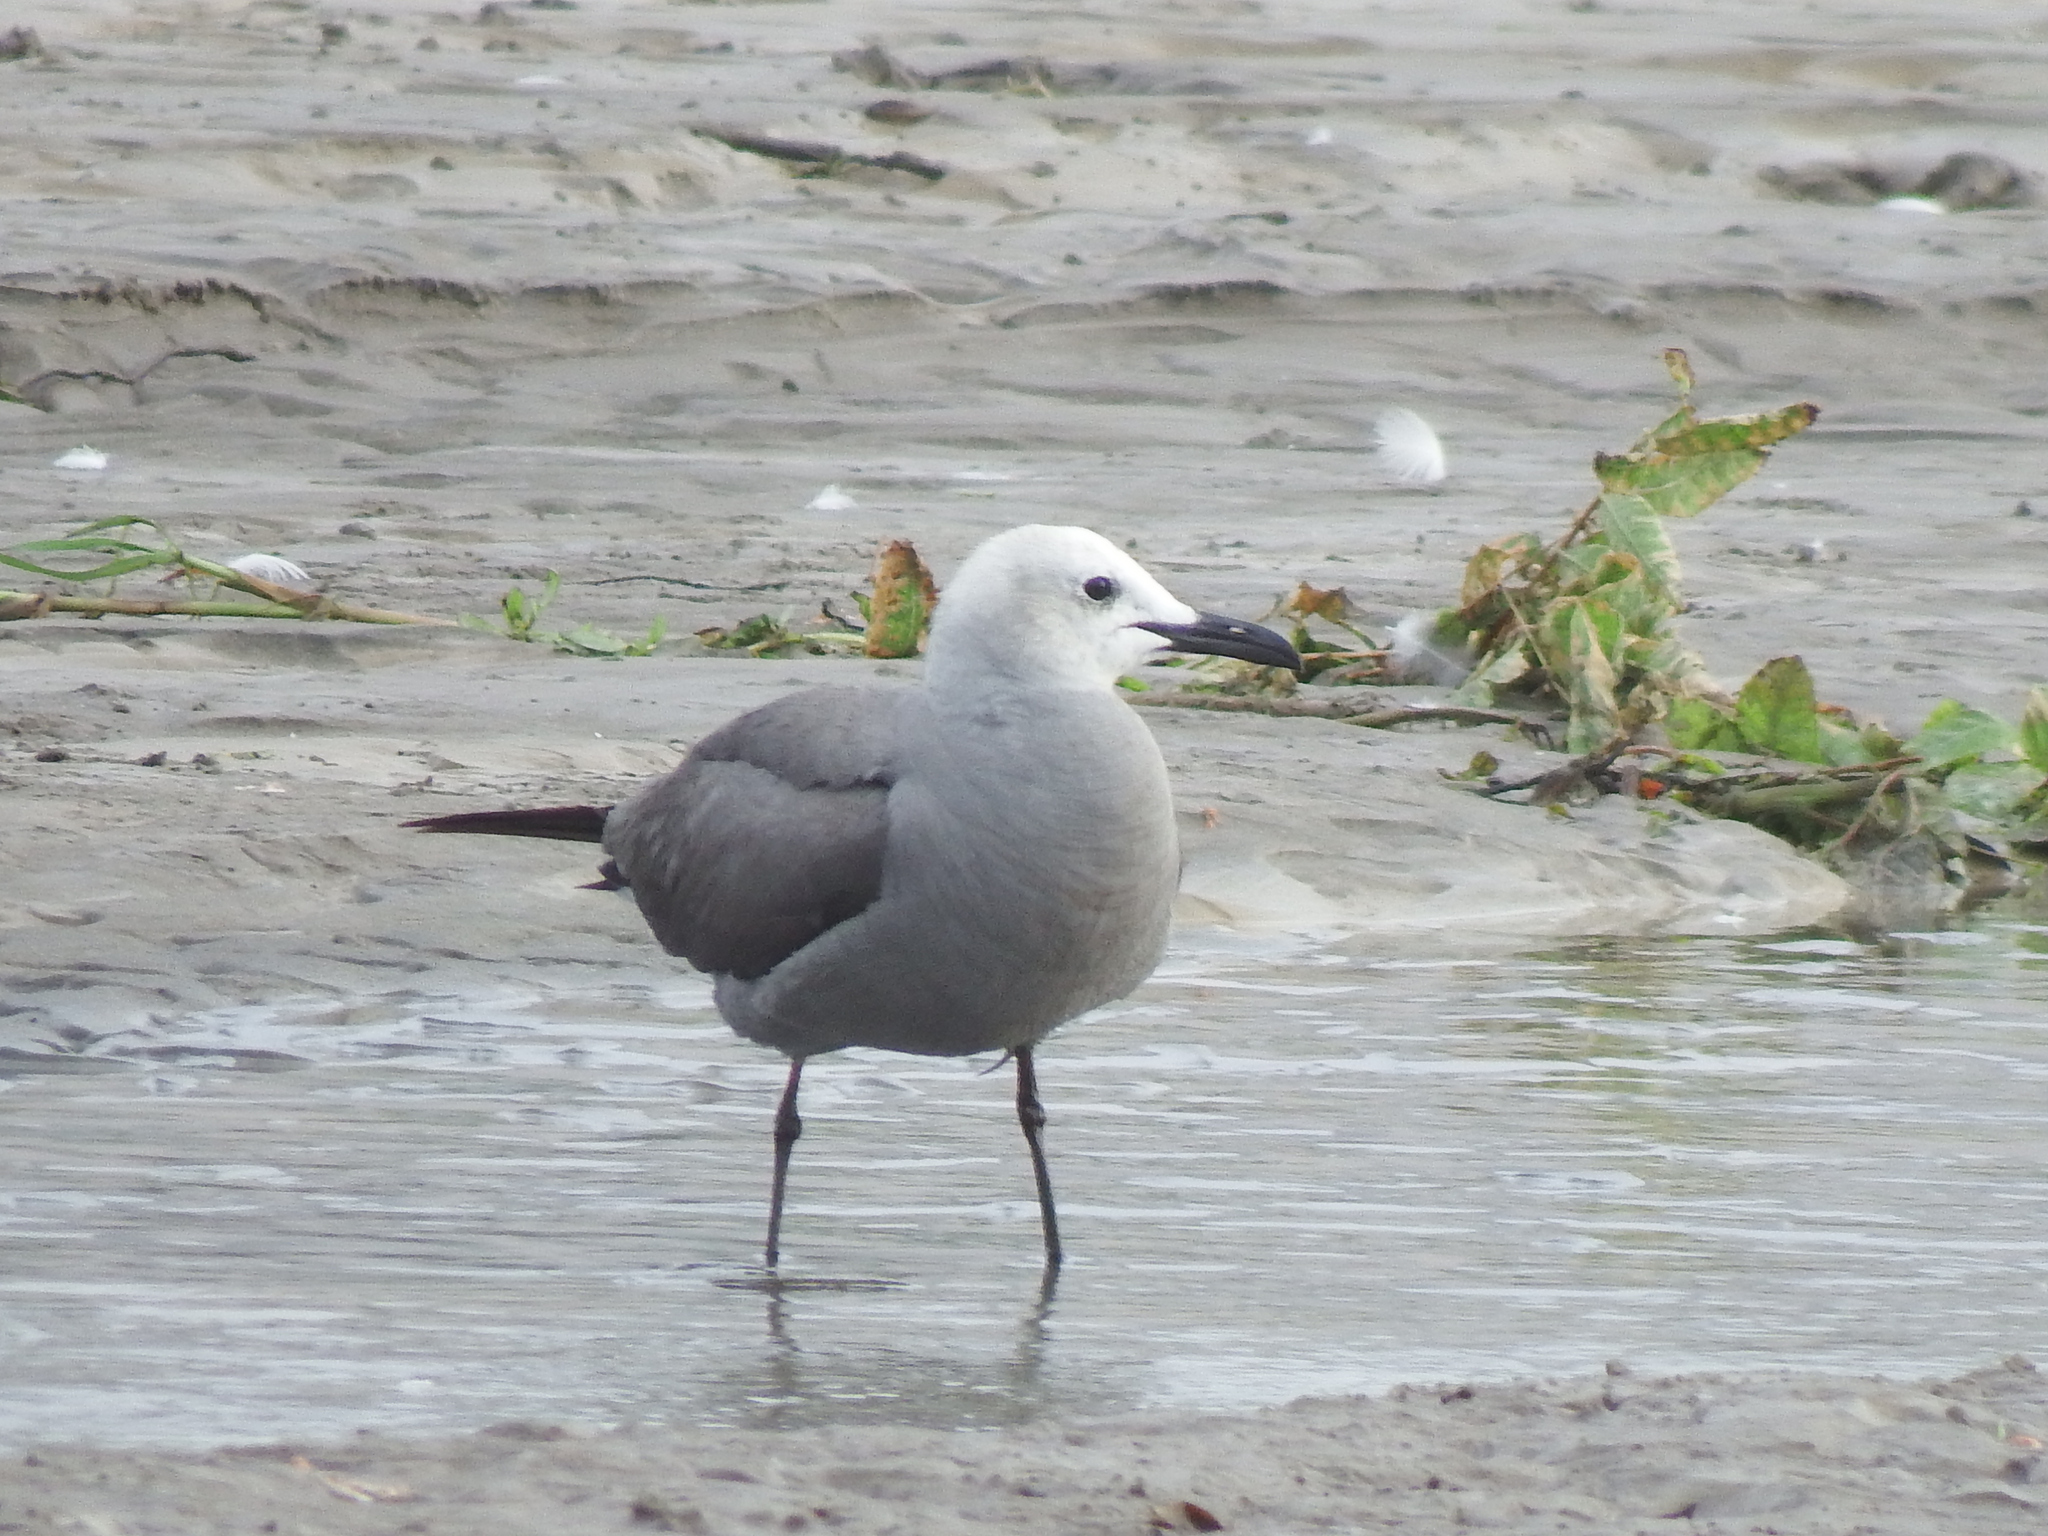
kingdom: Animalia
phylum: Chordata
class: Aves
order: Charadriiformes
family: Laridae
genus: Leucophaeus
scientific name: Leucophaeus modestus
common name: Gray gull
